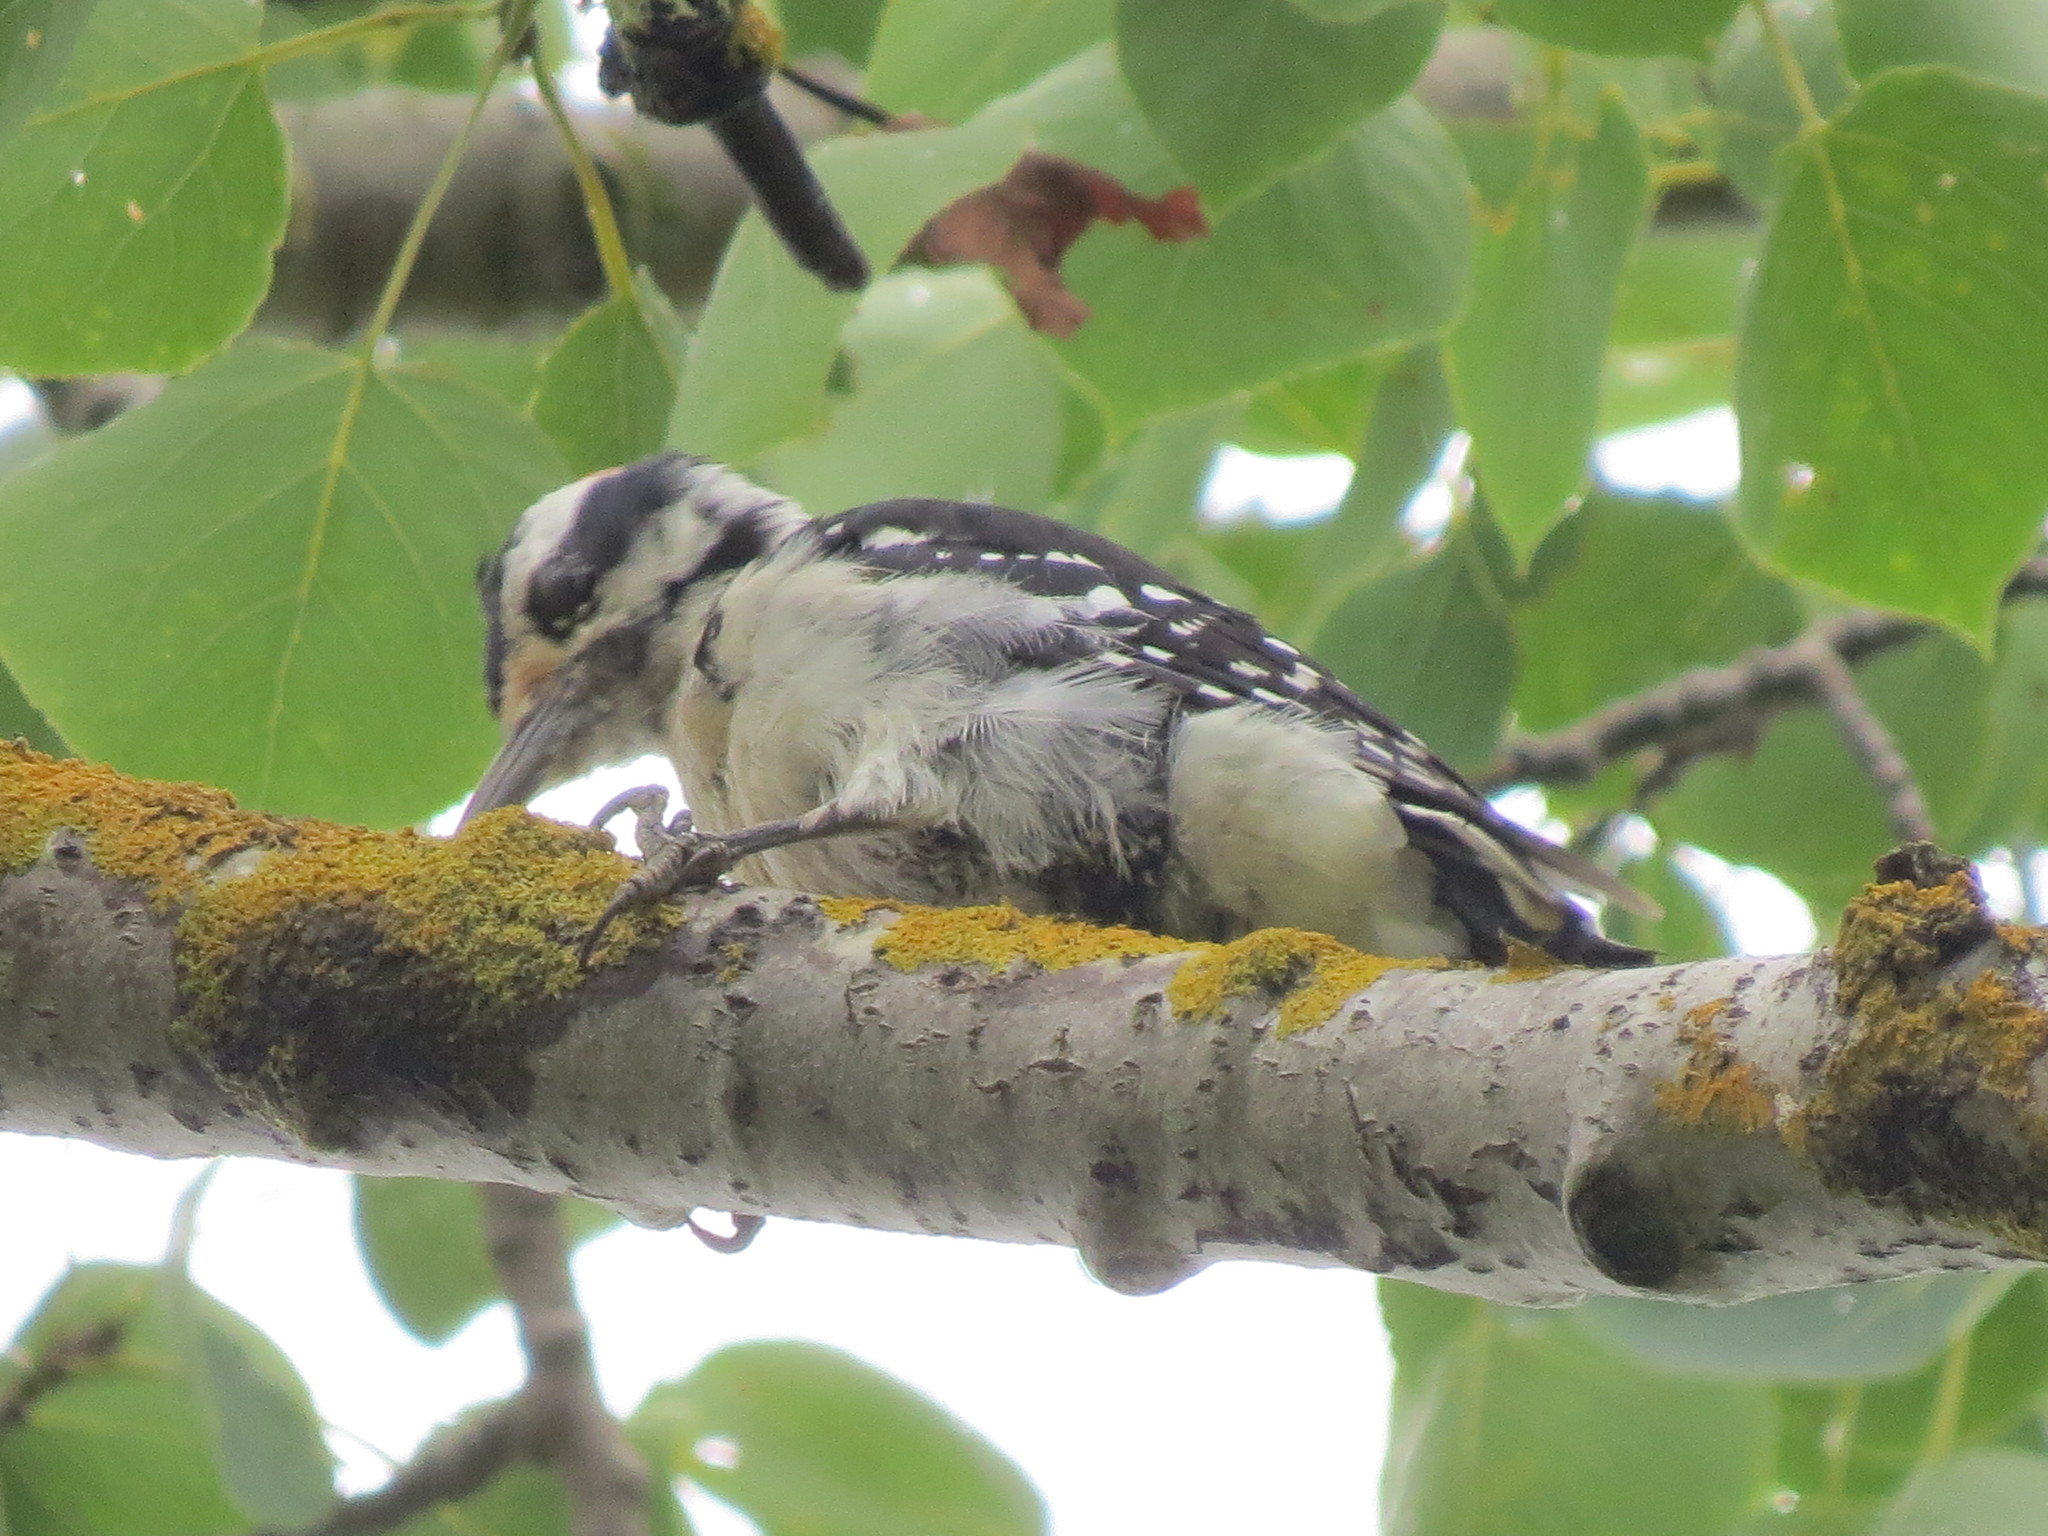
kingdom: Animalia
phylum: Chordata
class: Aves
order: Piciformes
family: Picidae
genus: Leuconotopicus
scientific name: Leuconotopicus villosus
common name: Hairy woodpecker
